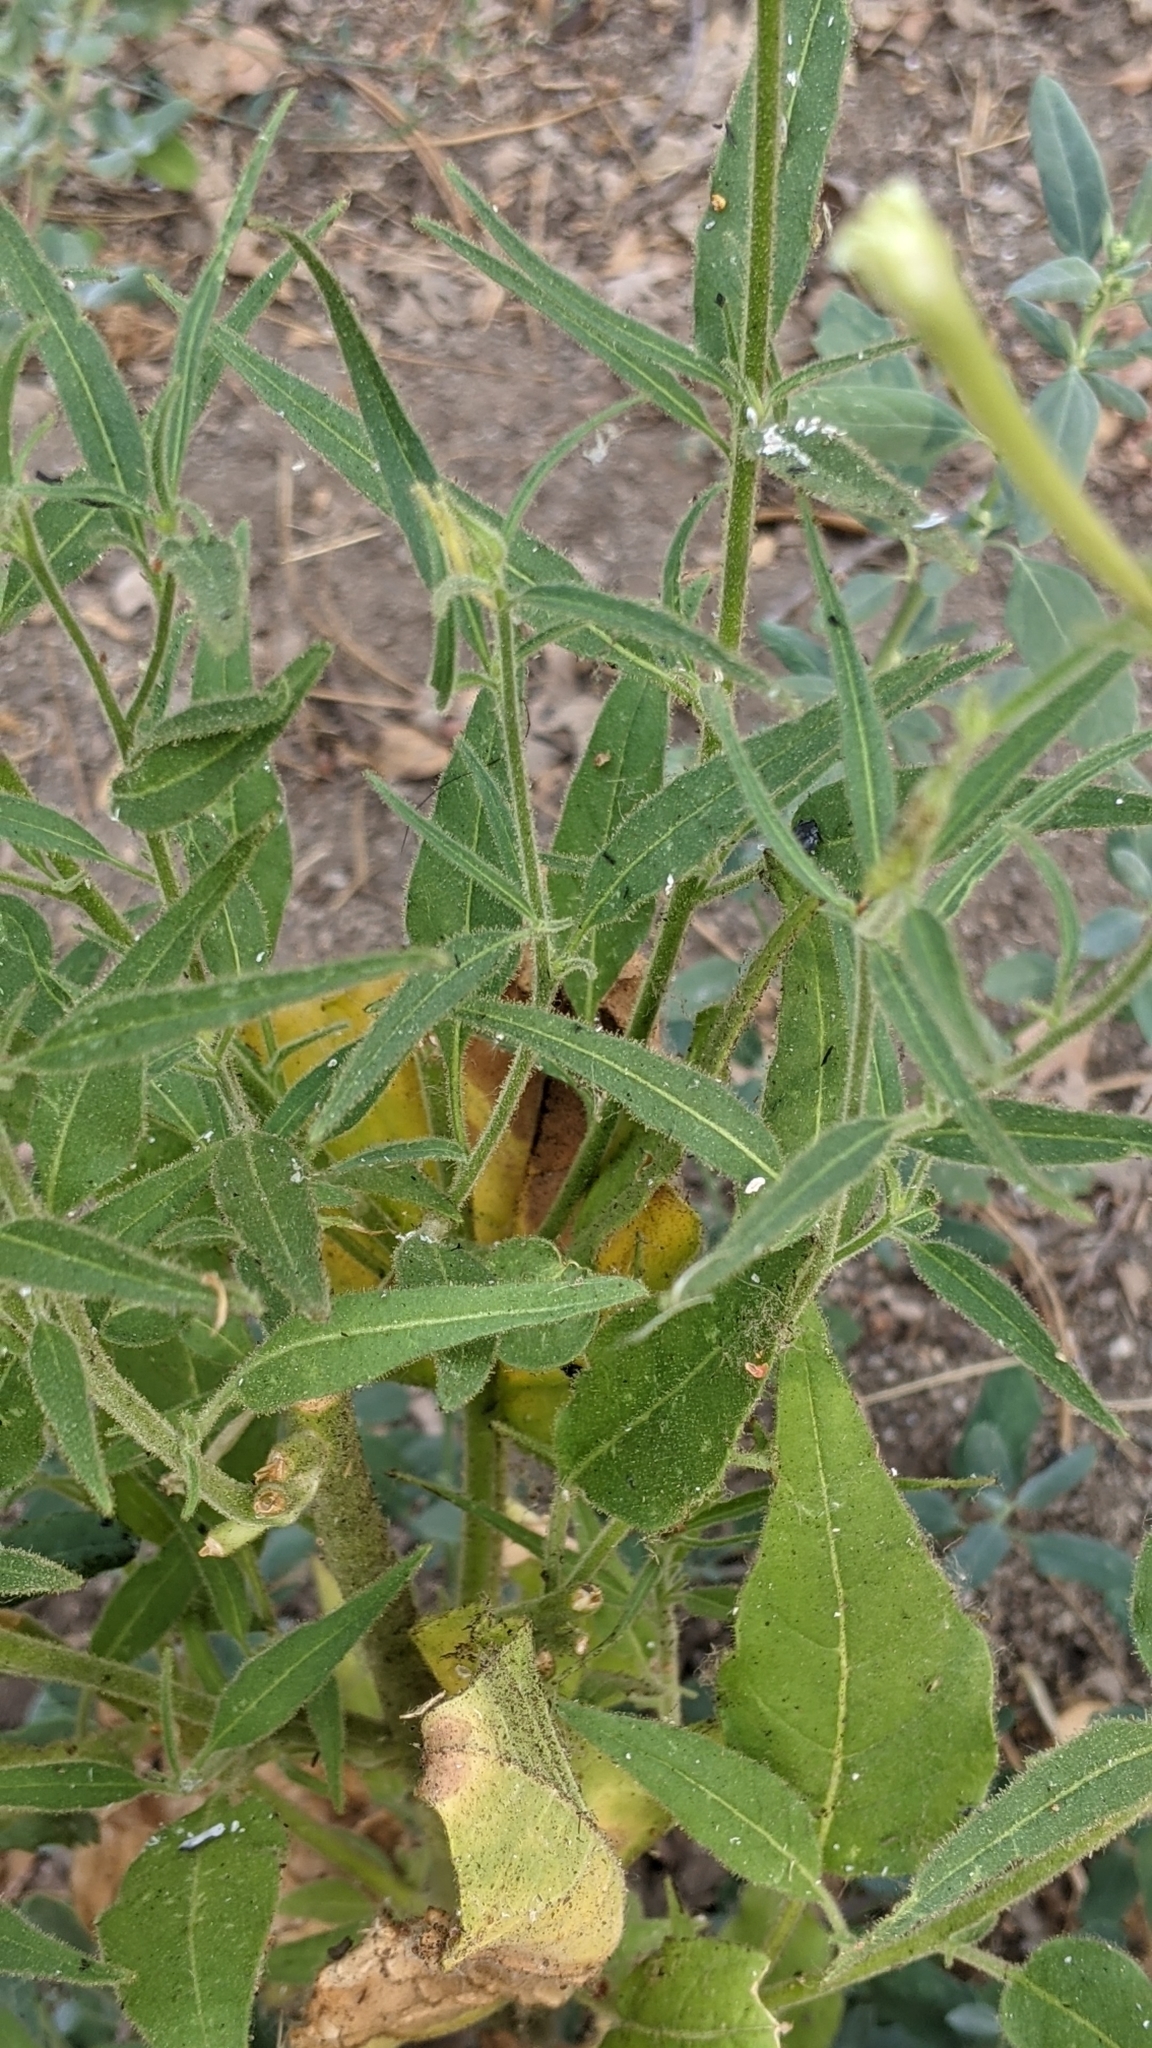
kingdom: Plantae
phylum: Tracheophyta
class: Magnoliopsida
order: Solanales
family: Solanaceae
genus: Nicotiana
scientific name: Nicotiana attenuata
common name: Coyote tobacco
